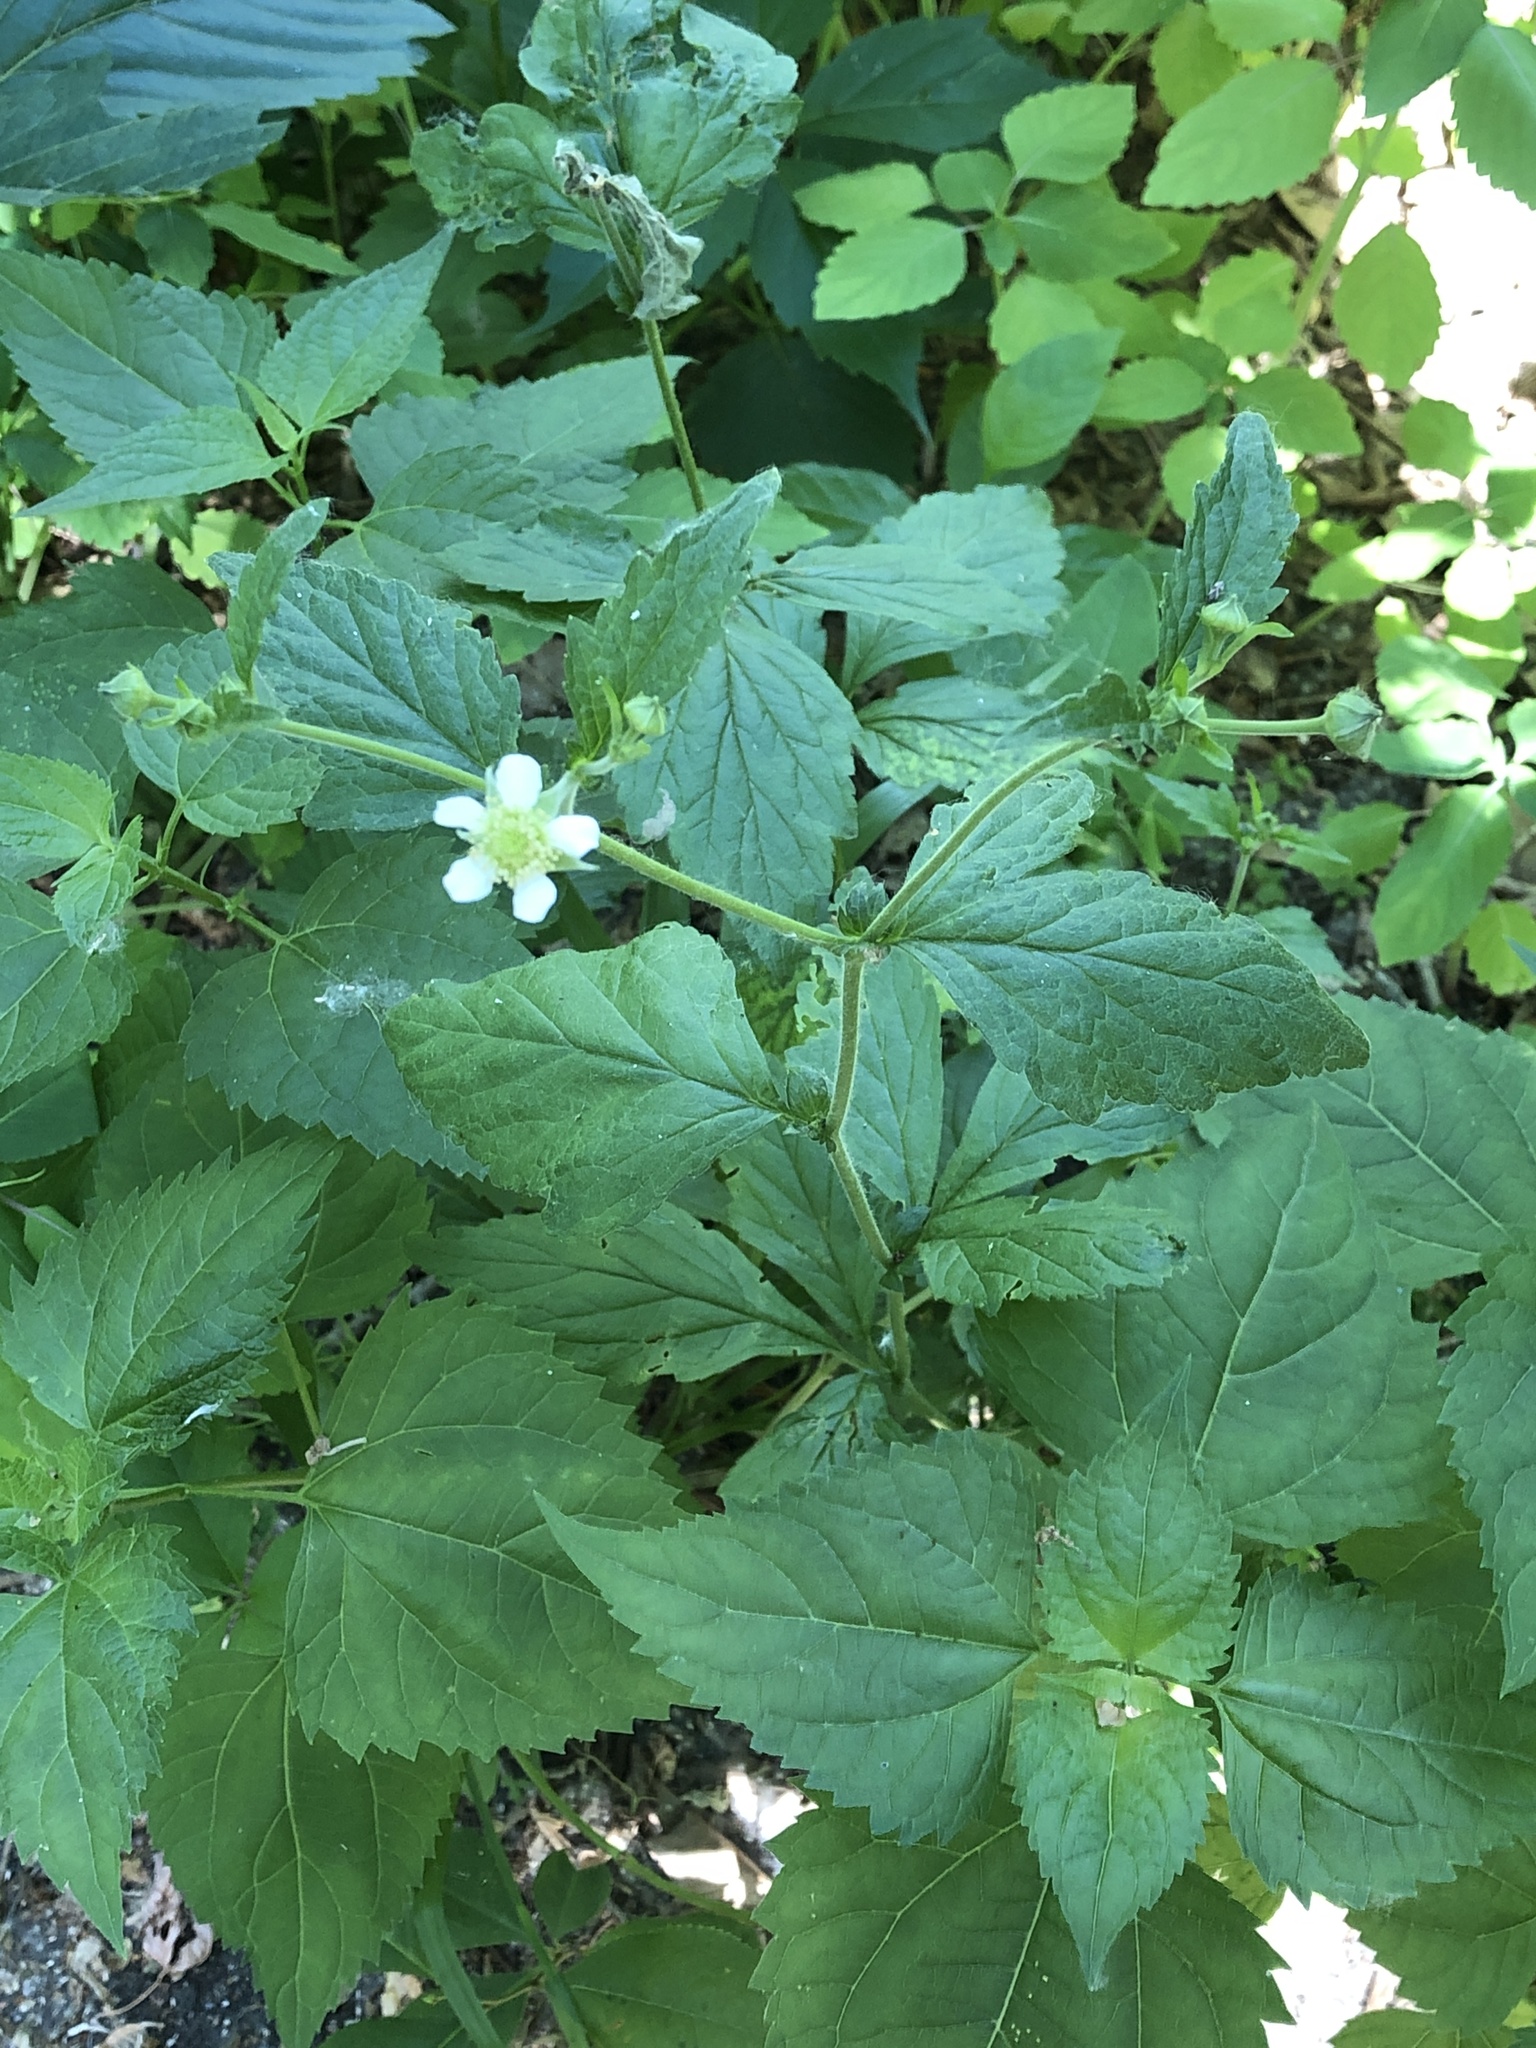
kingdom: Plantae
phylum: Tracheophyta
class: Magnoliopsida
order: Rosales
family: Rosaceae
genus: Geum
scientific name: Geum canadense
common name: White avens
